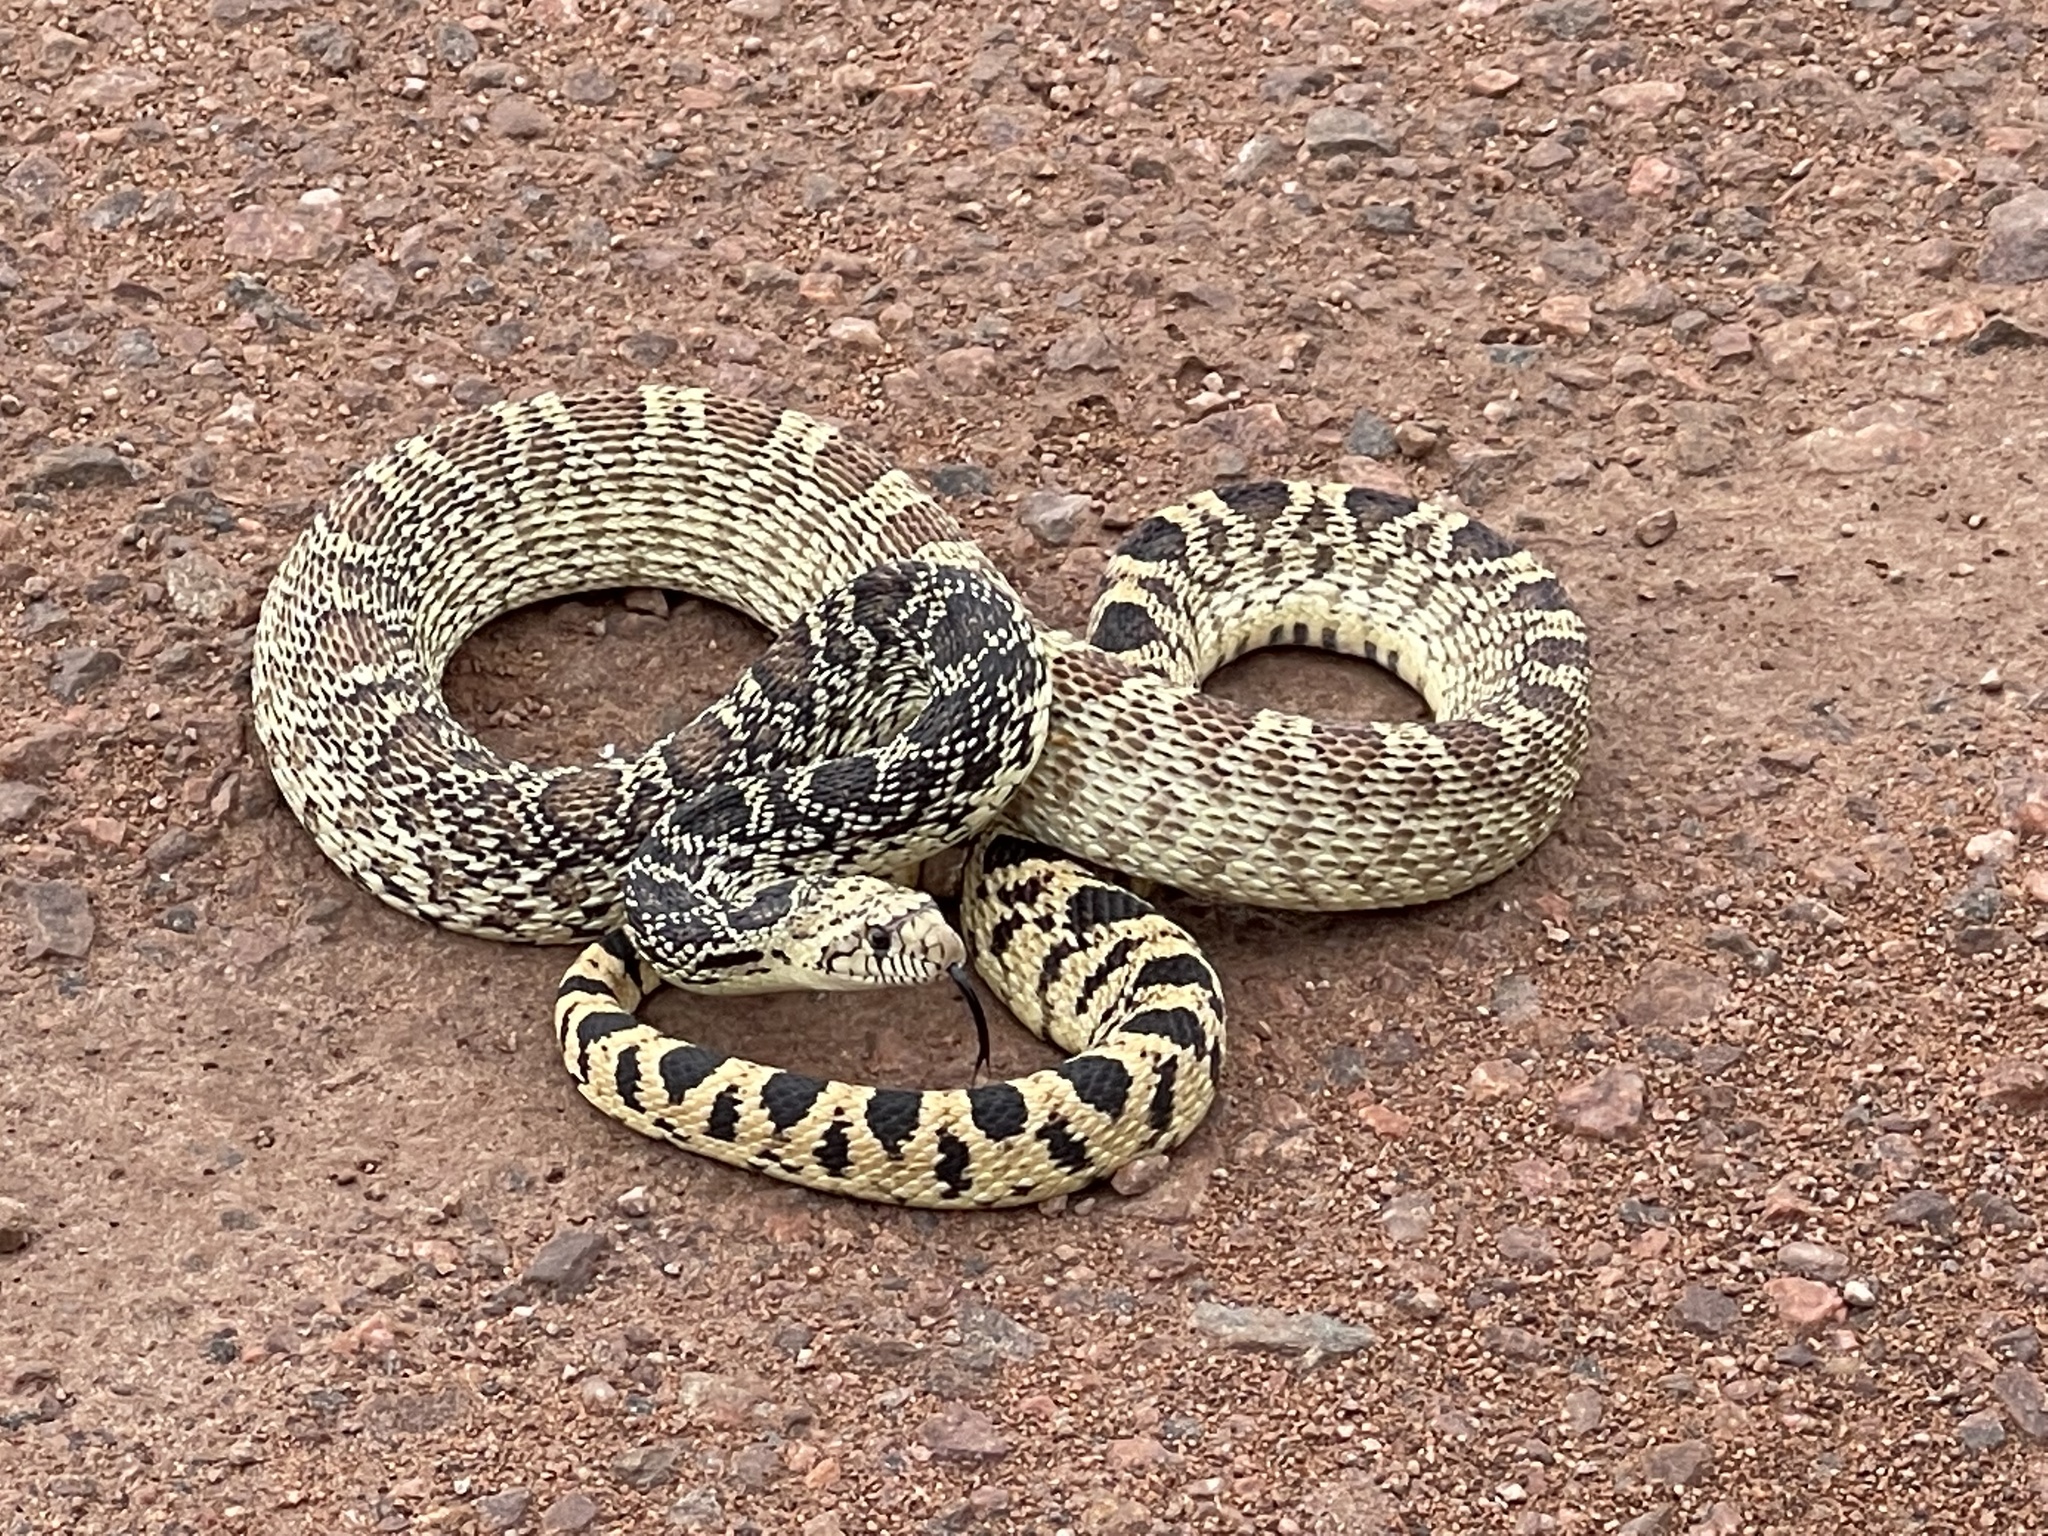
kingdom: Animalia
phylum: Chordata
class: Squamata
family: Colubridae
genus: Pituophis
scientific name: Pituophis catenifer
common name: Gopher snake
